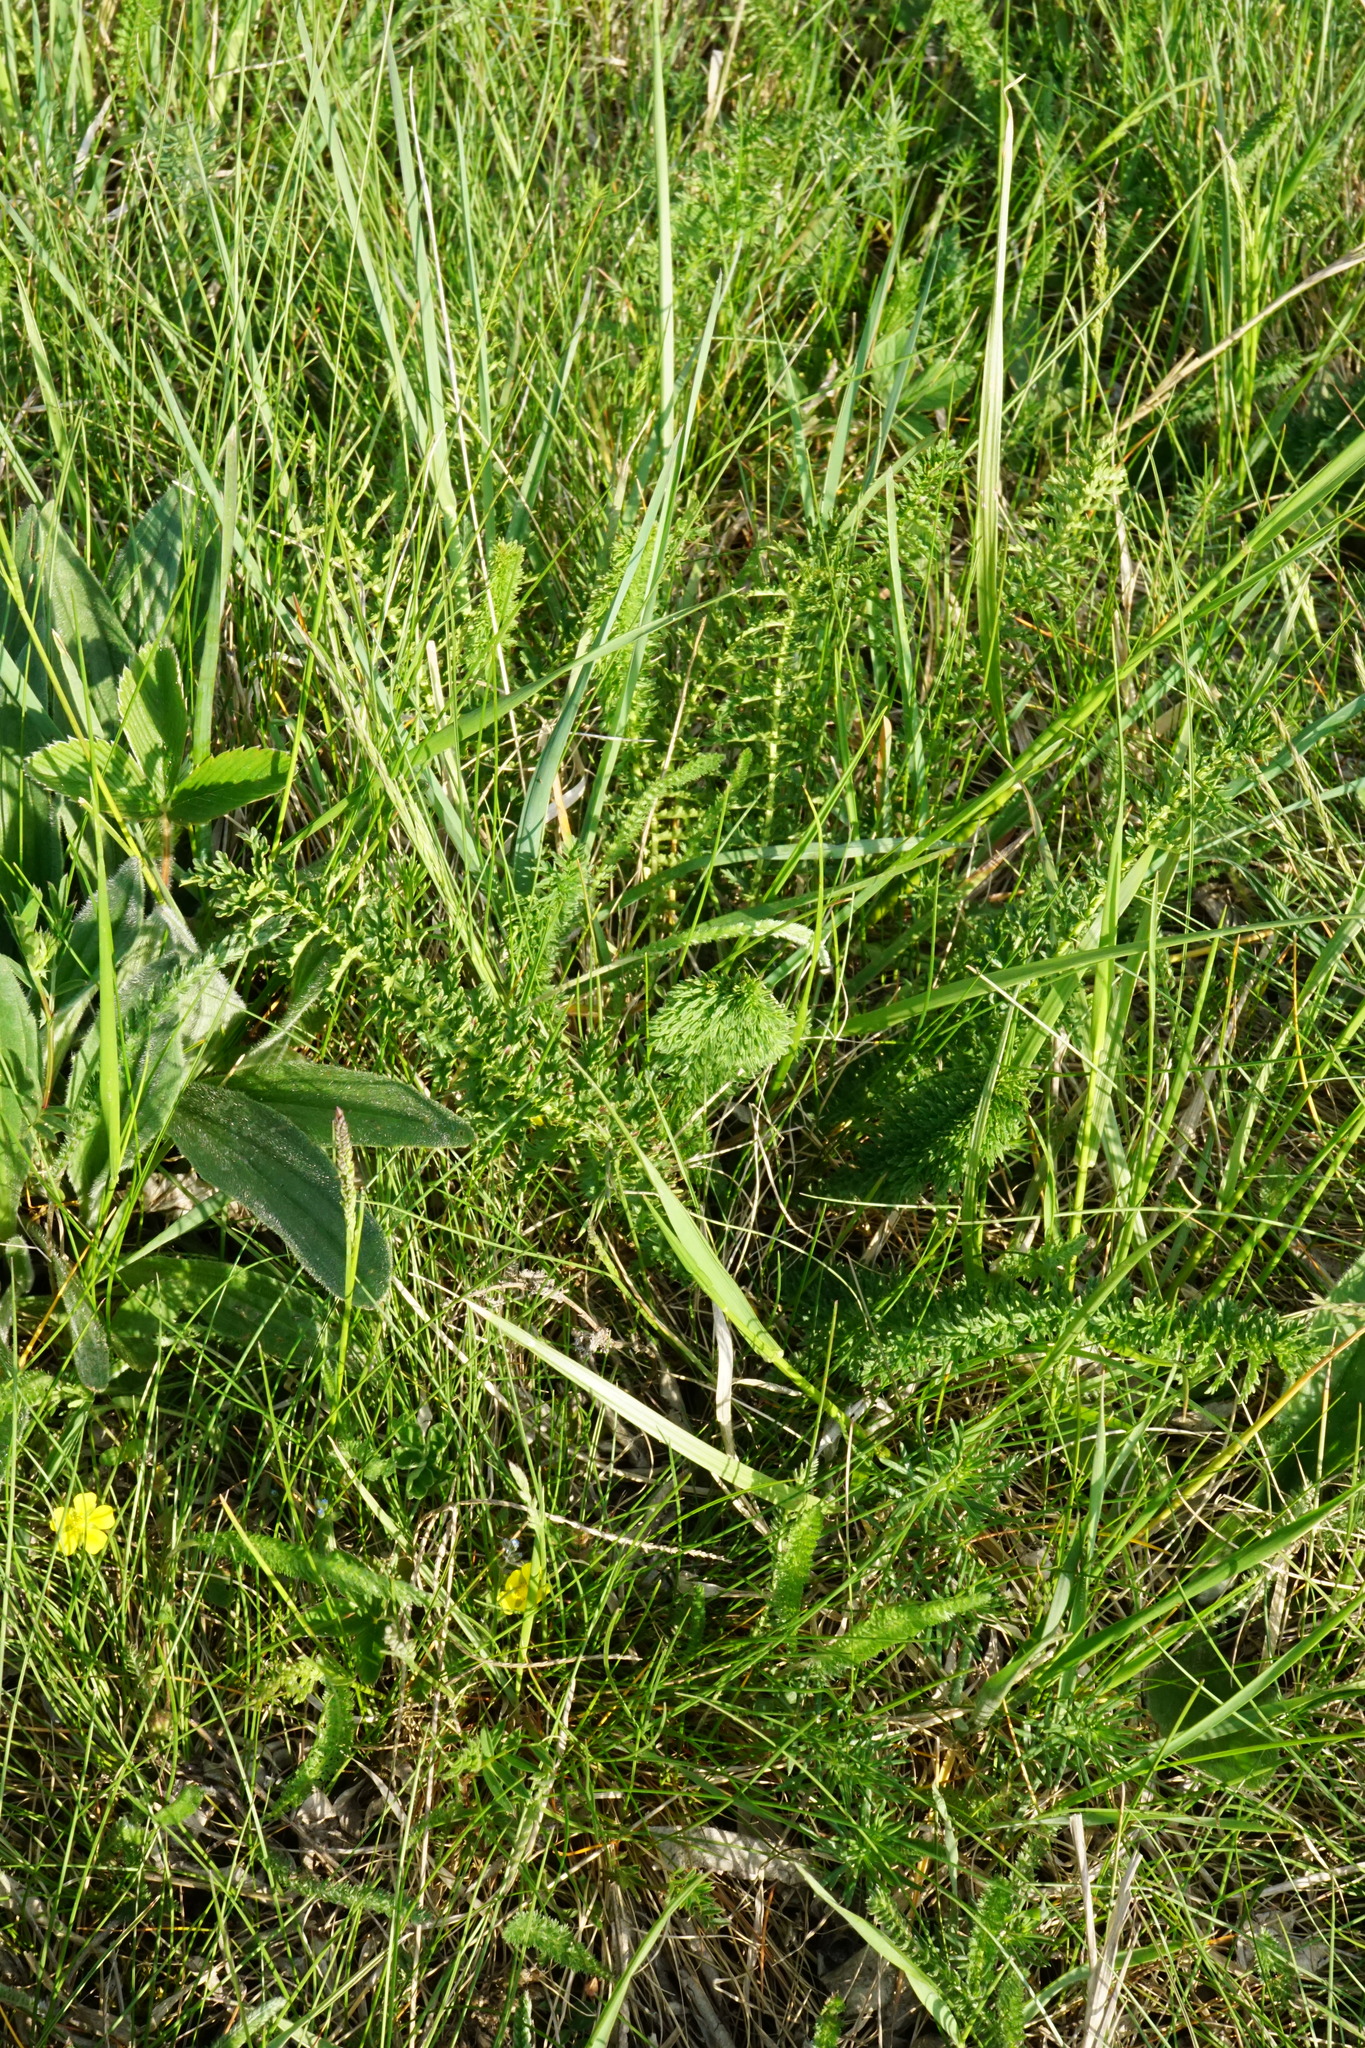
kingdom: Plantae
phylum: Tracheophyta
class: Magnoliopsida
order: Rosales
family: Rosaceae
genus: Filipendula
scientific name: Filipendula vulgaris
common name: Dropwort
